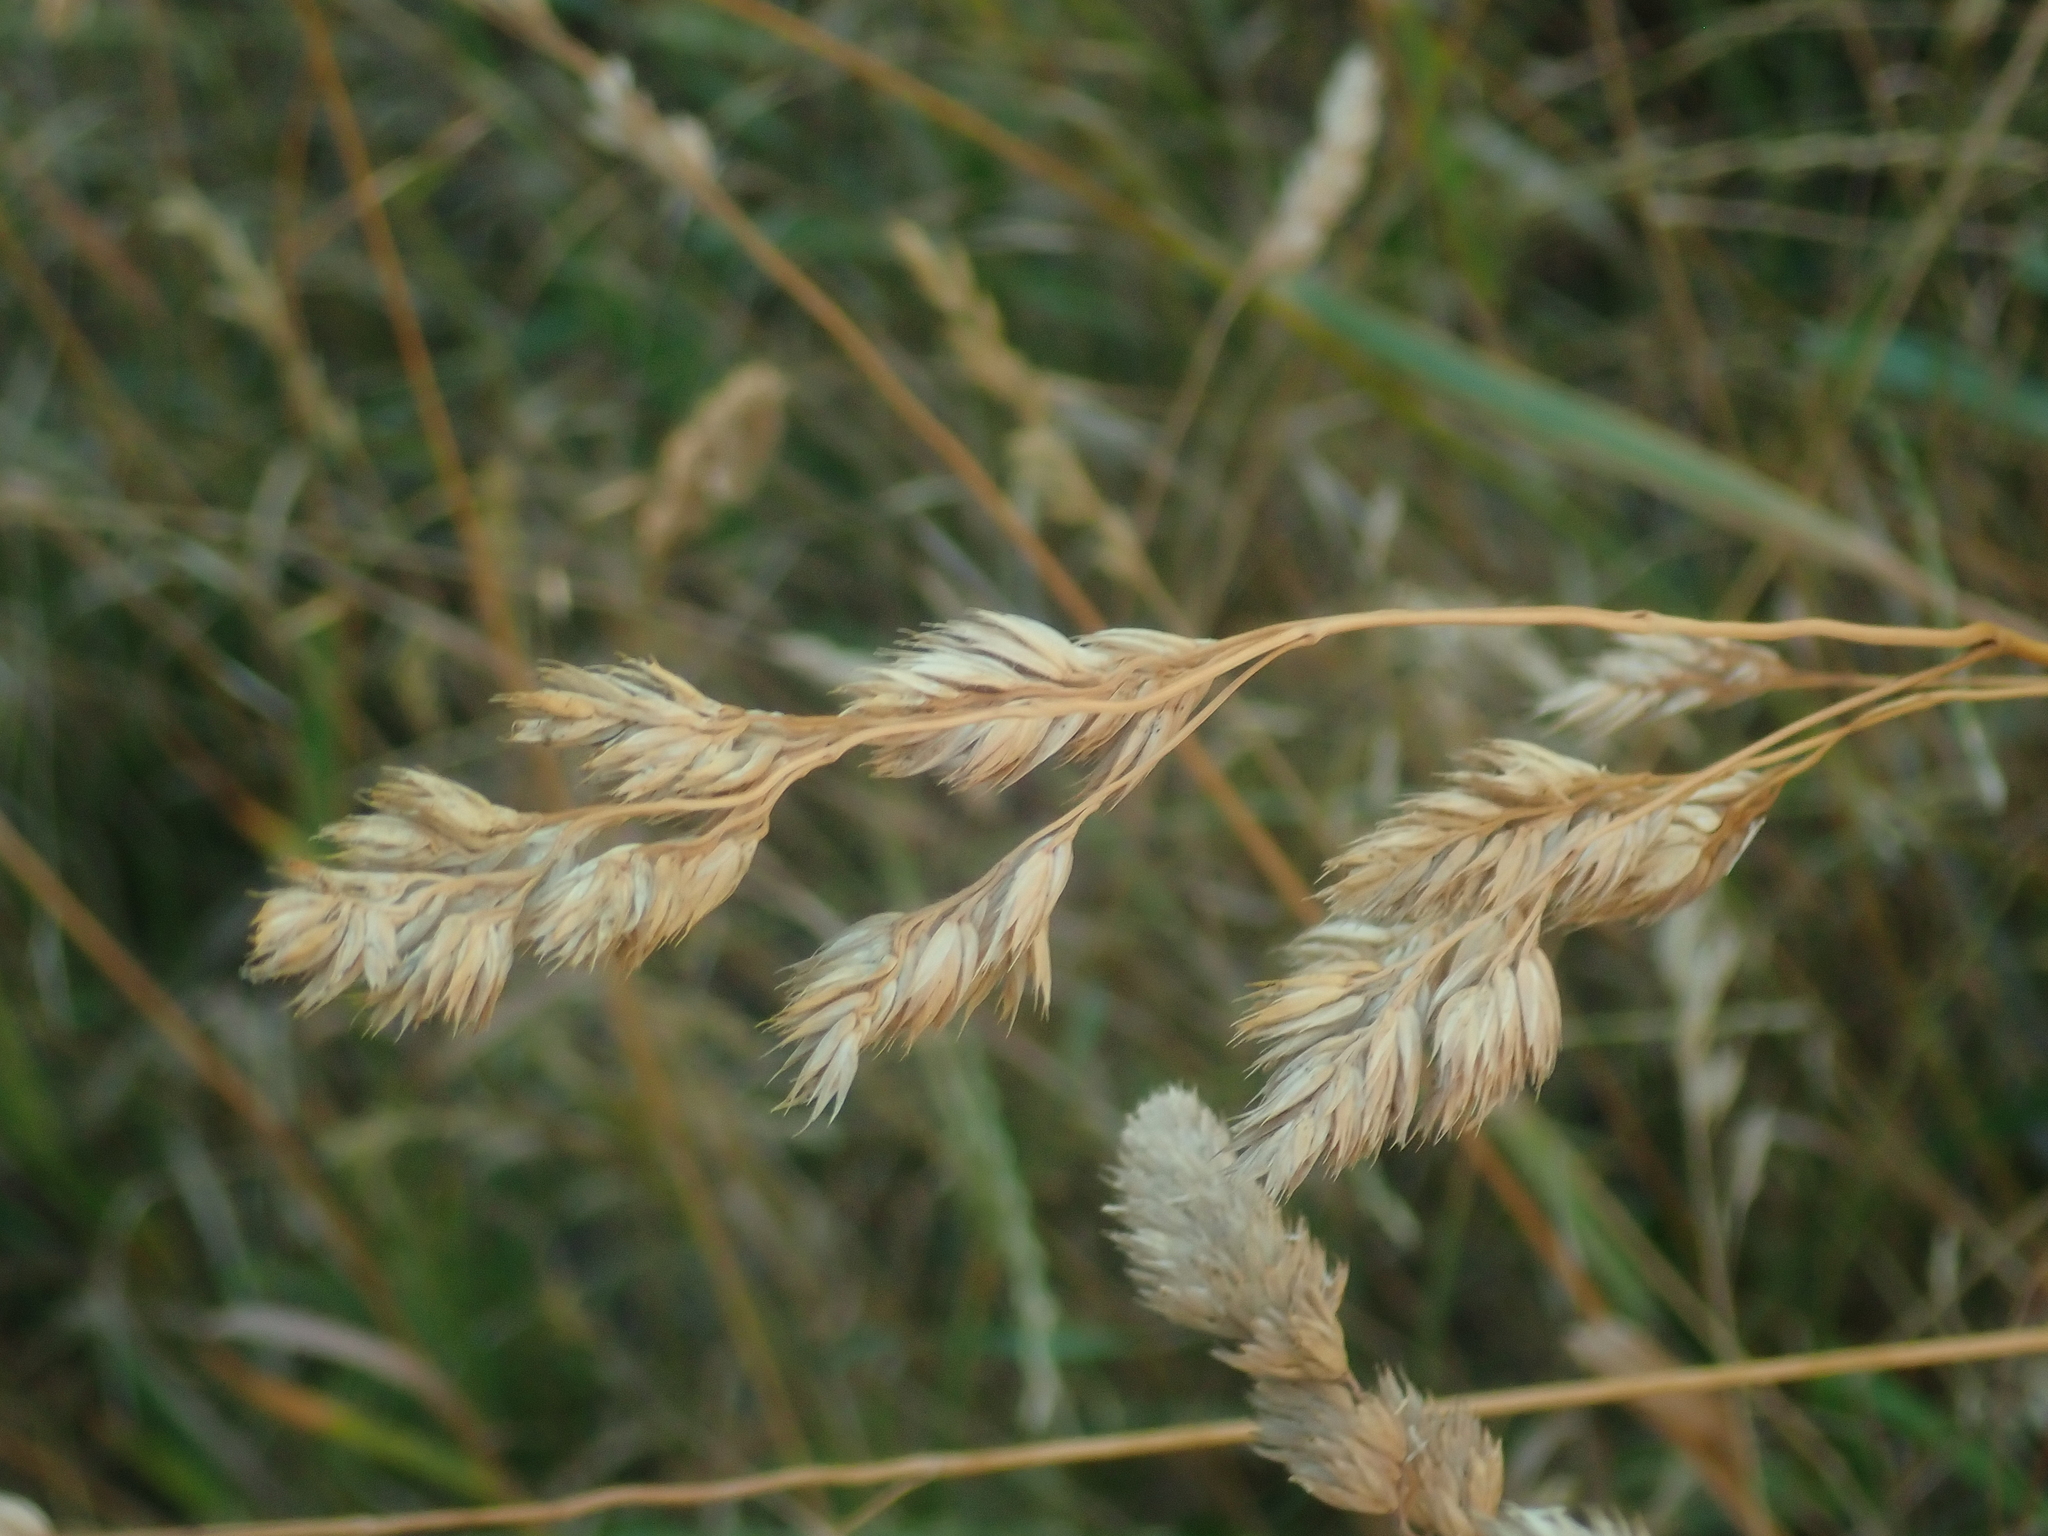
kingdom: Plantae
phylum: Tracheophyta
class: Liliopsida
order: Poales
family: Poaceae
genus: Dactylis
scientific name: Dactylis glomerata
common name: Orchardgrass
